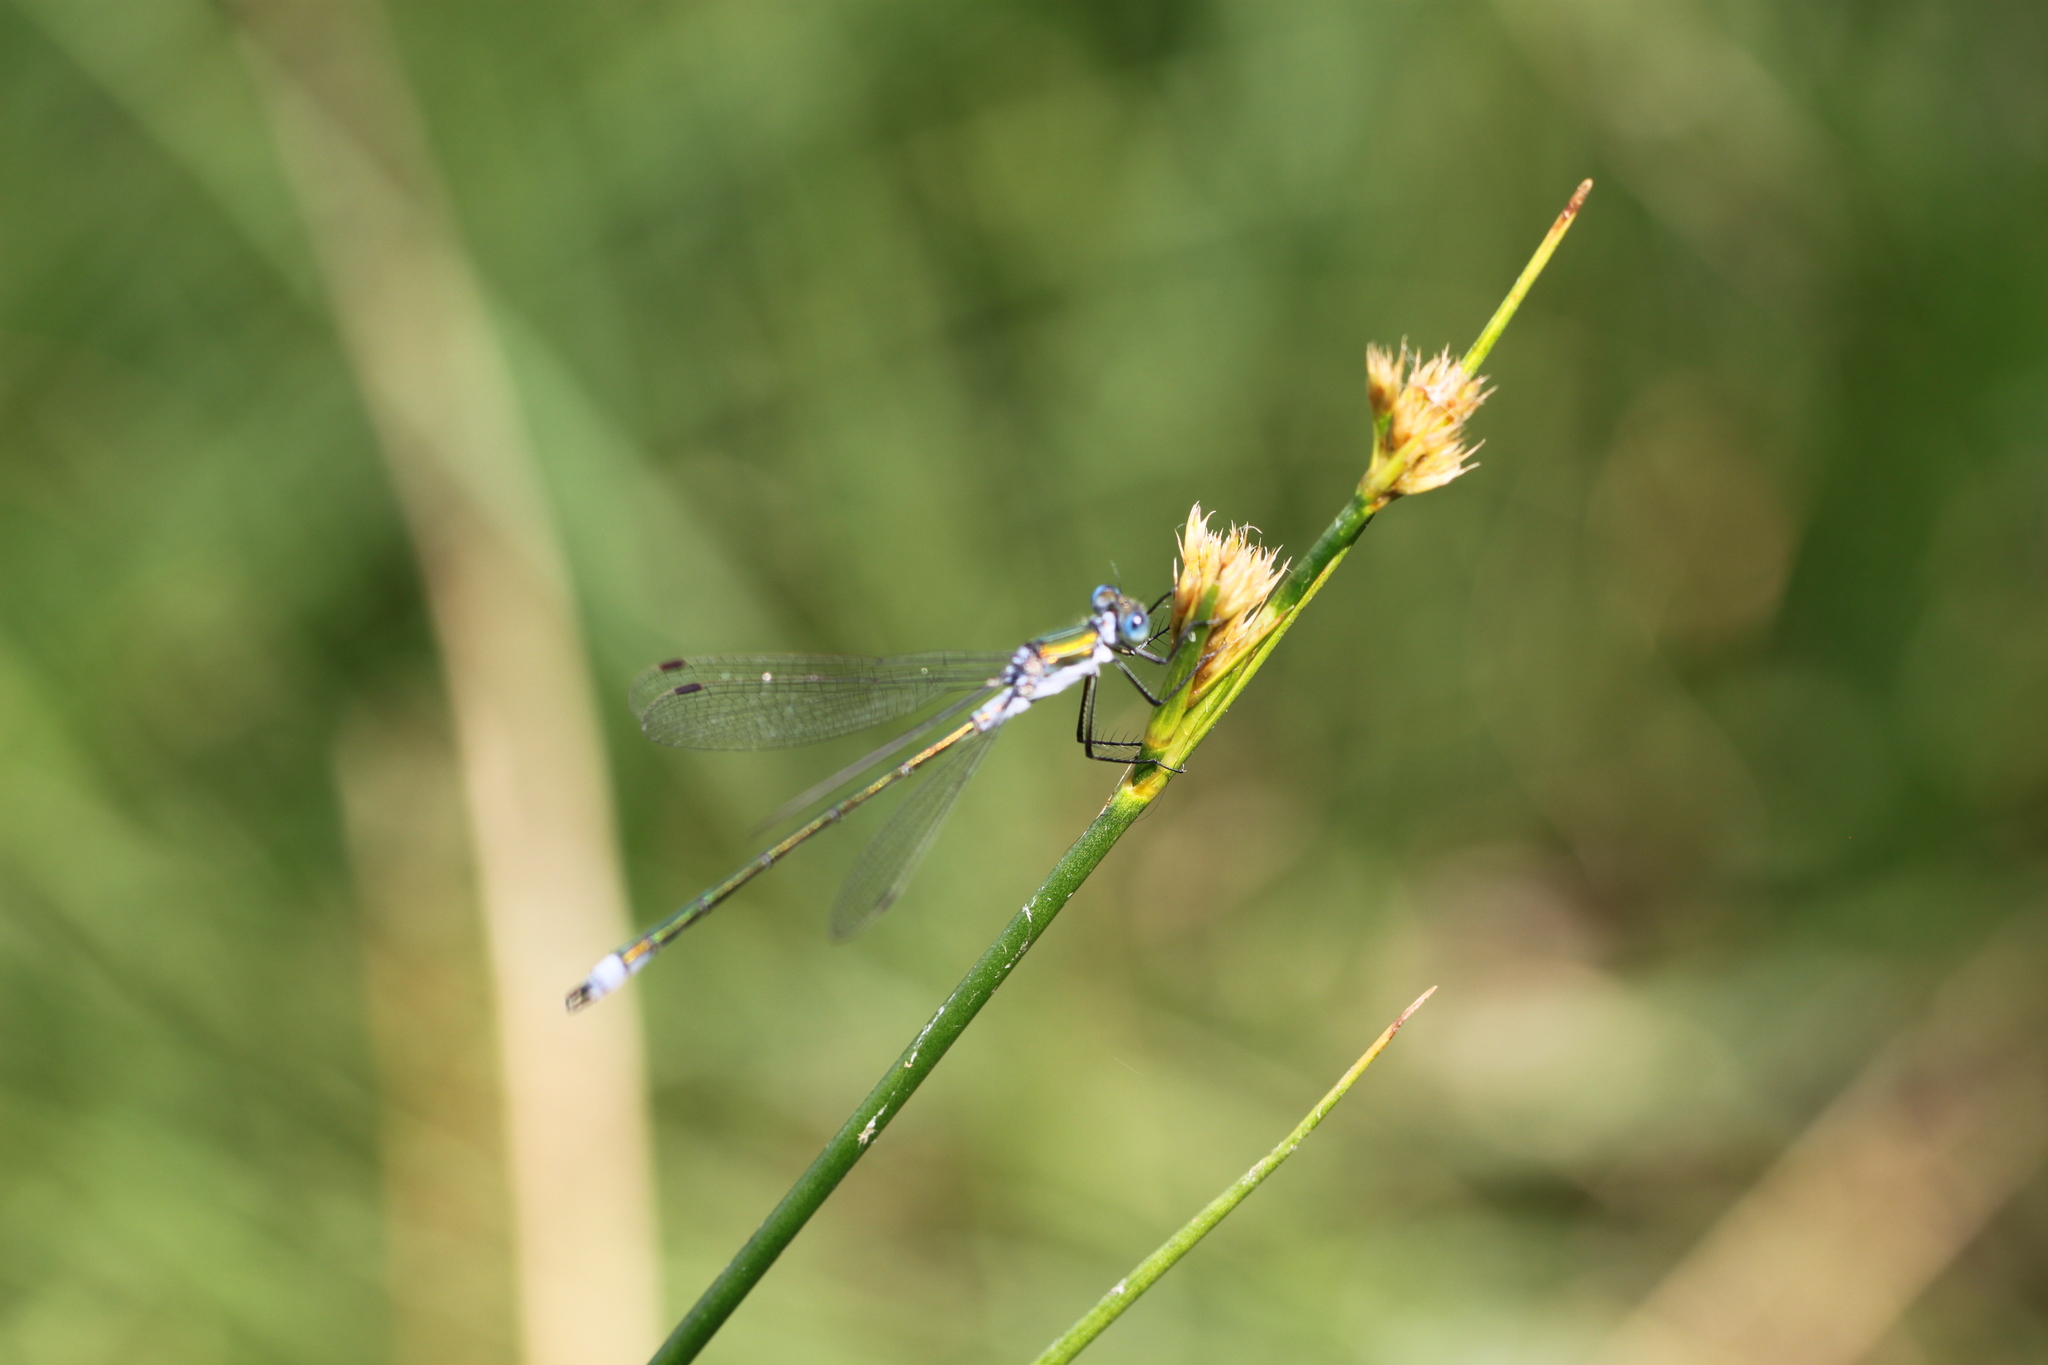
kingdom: Animalia
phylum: Arthropoda
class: Insecta
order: Odonata
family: Lestidae
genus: Lestes
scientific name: Lestes sponsa
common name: Common spreadwing
